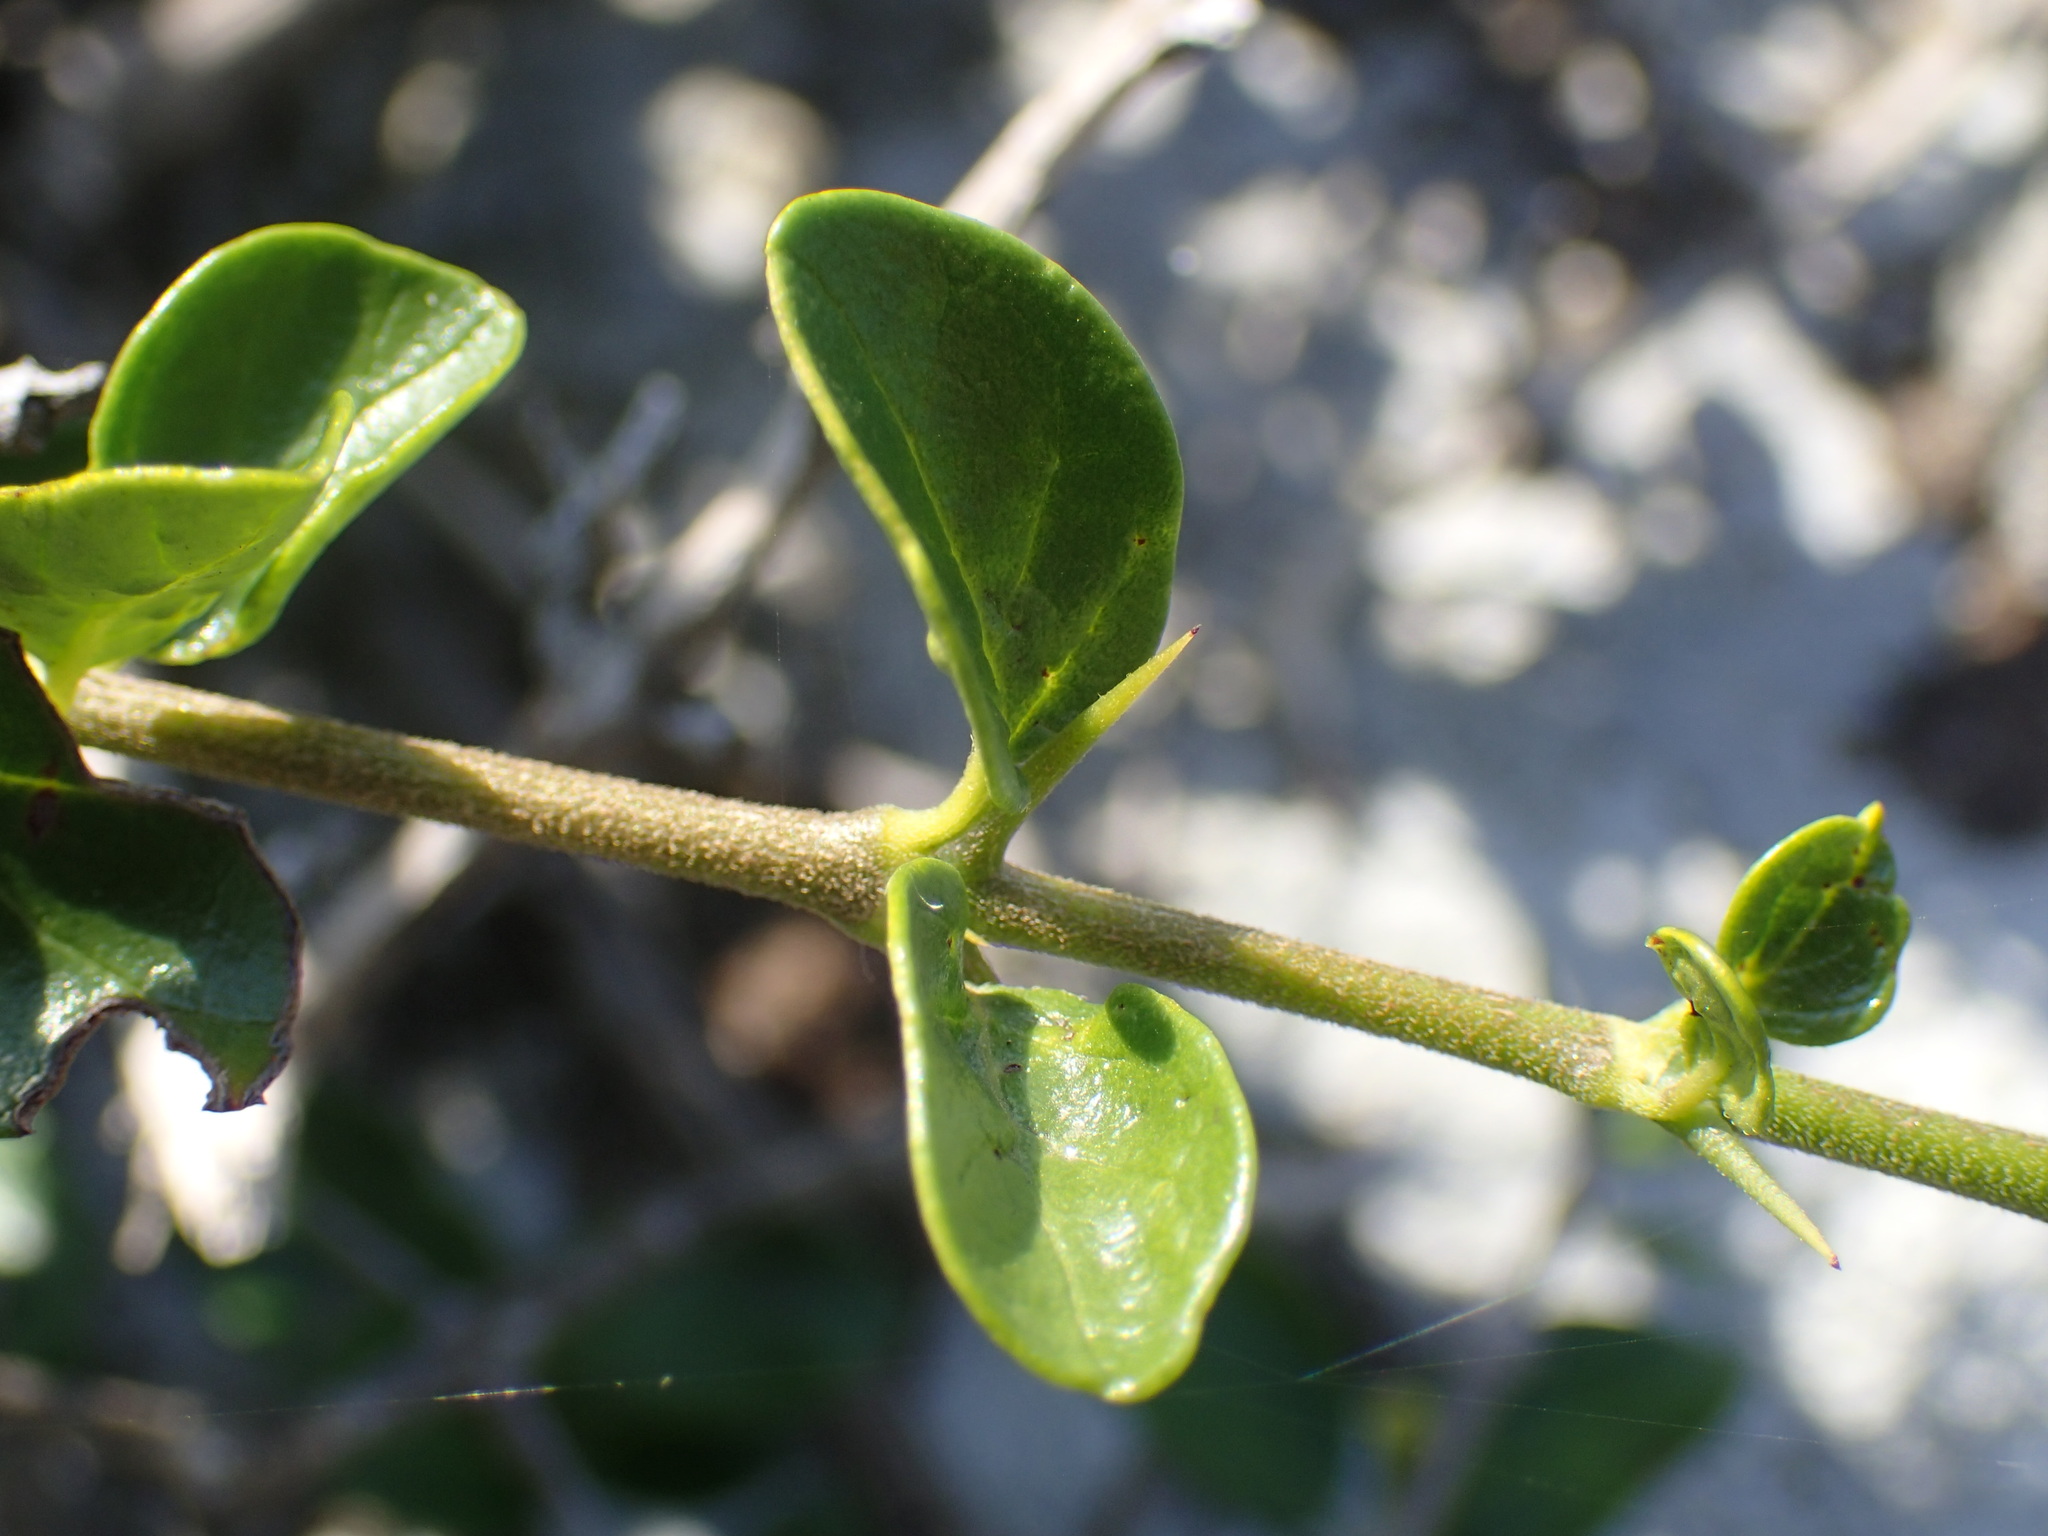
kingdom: Plantae
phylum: Tracheophyta
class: Magnoliopsida
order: Gentianales
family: Rubiaceae
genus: Canthium
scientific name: Canthium inerme
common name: Unarmed turkey-berry
